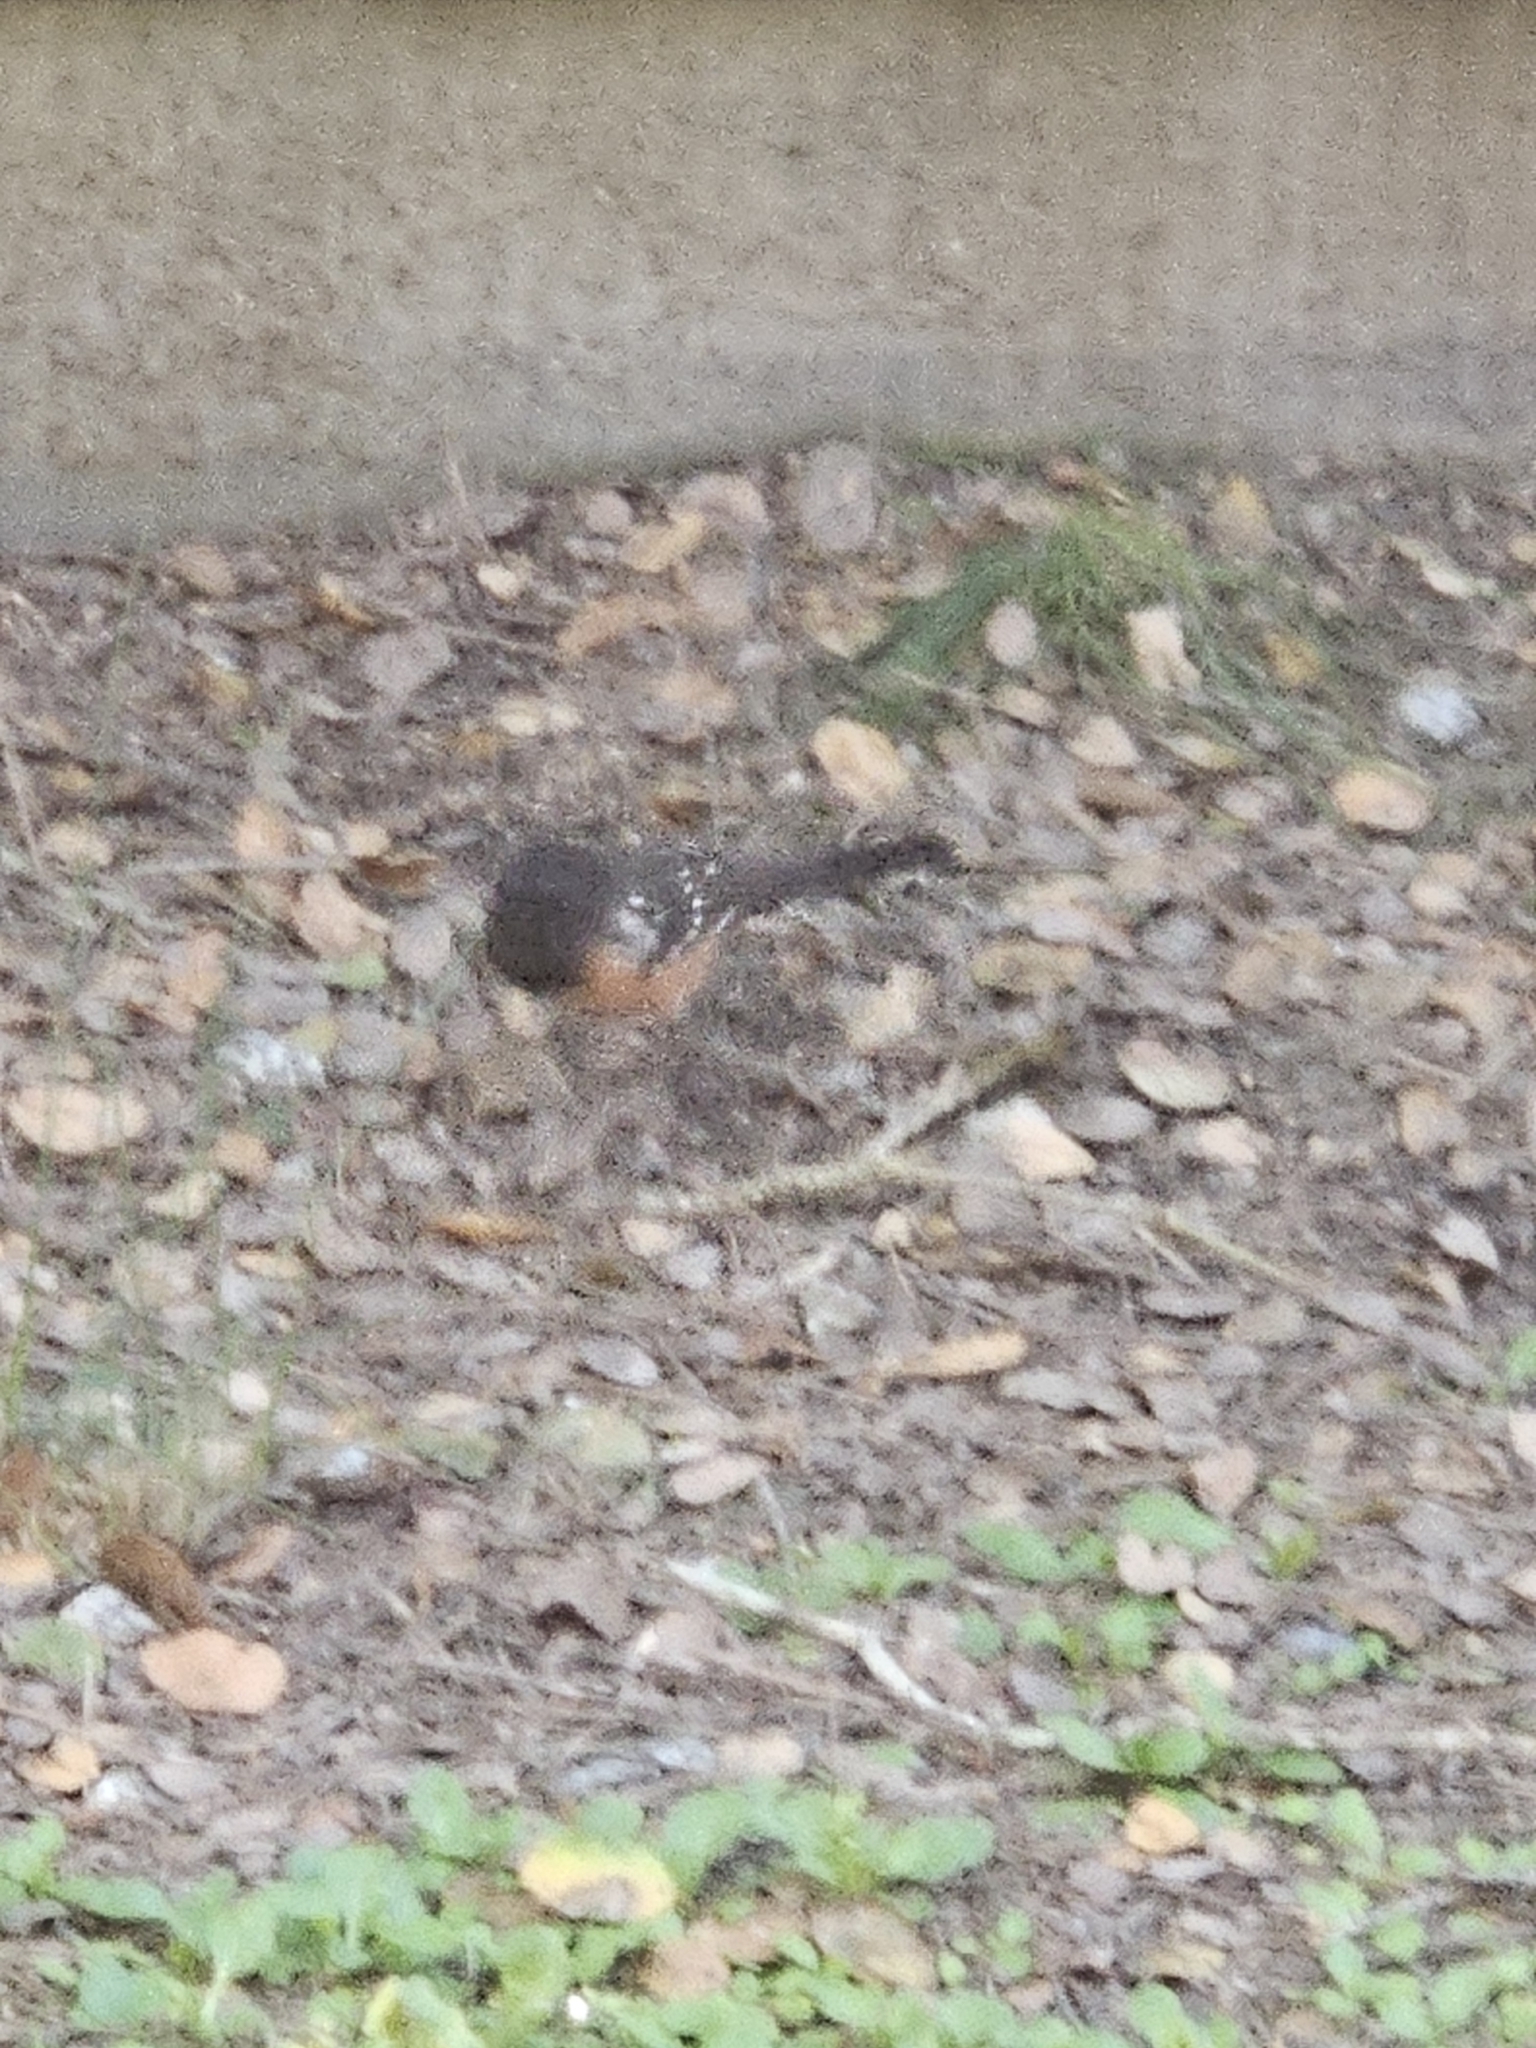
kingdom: Animalia
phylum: Chordata
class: Aves
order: Passeriformes
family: Passerellidae
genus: Pipilo
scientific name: Pipilo maculatus
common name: Spotted towhee
